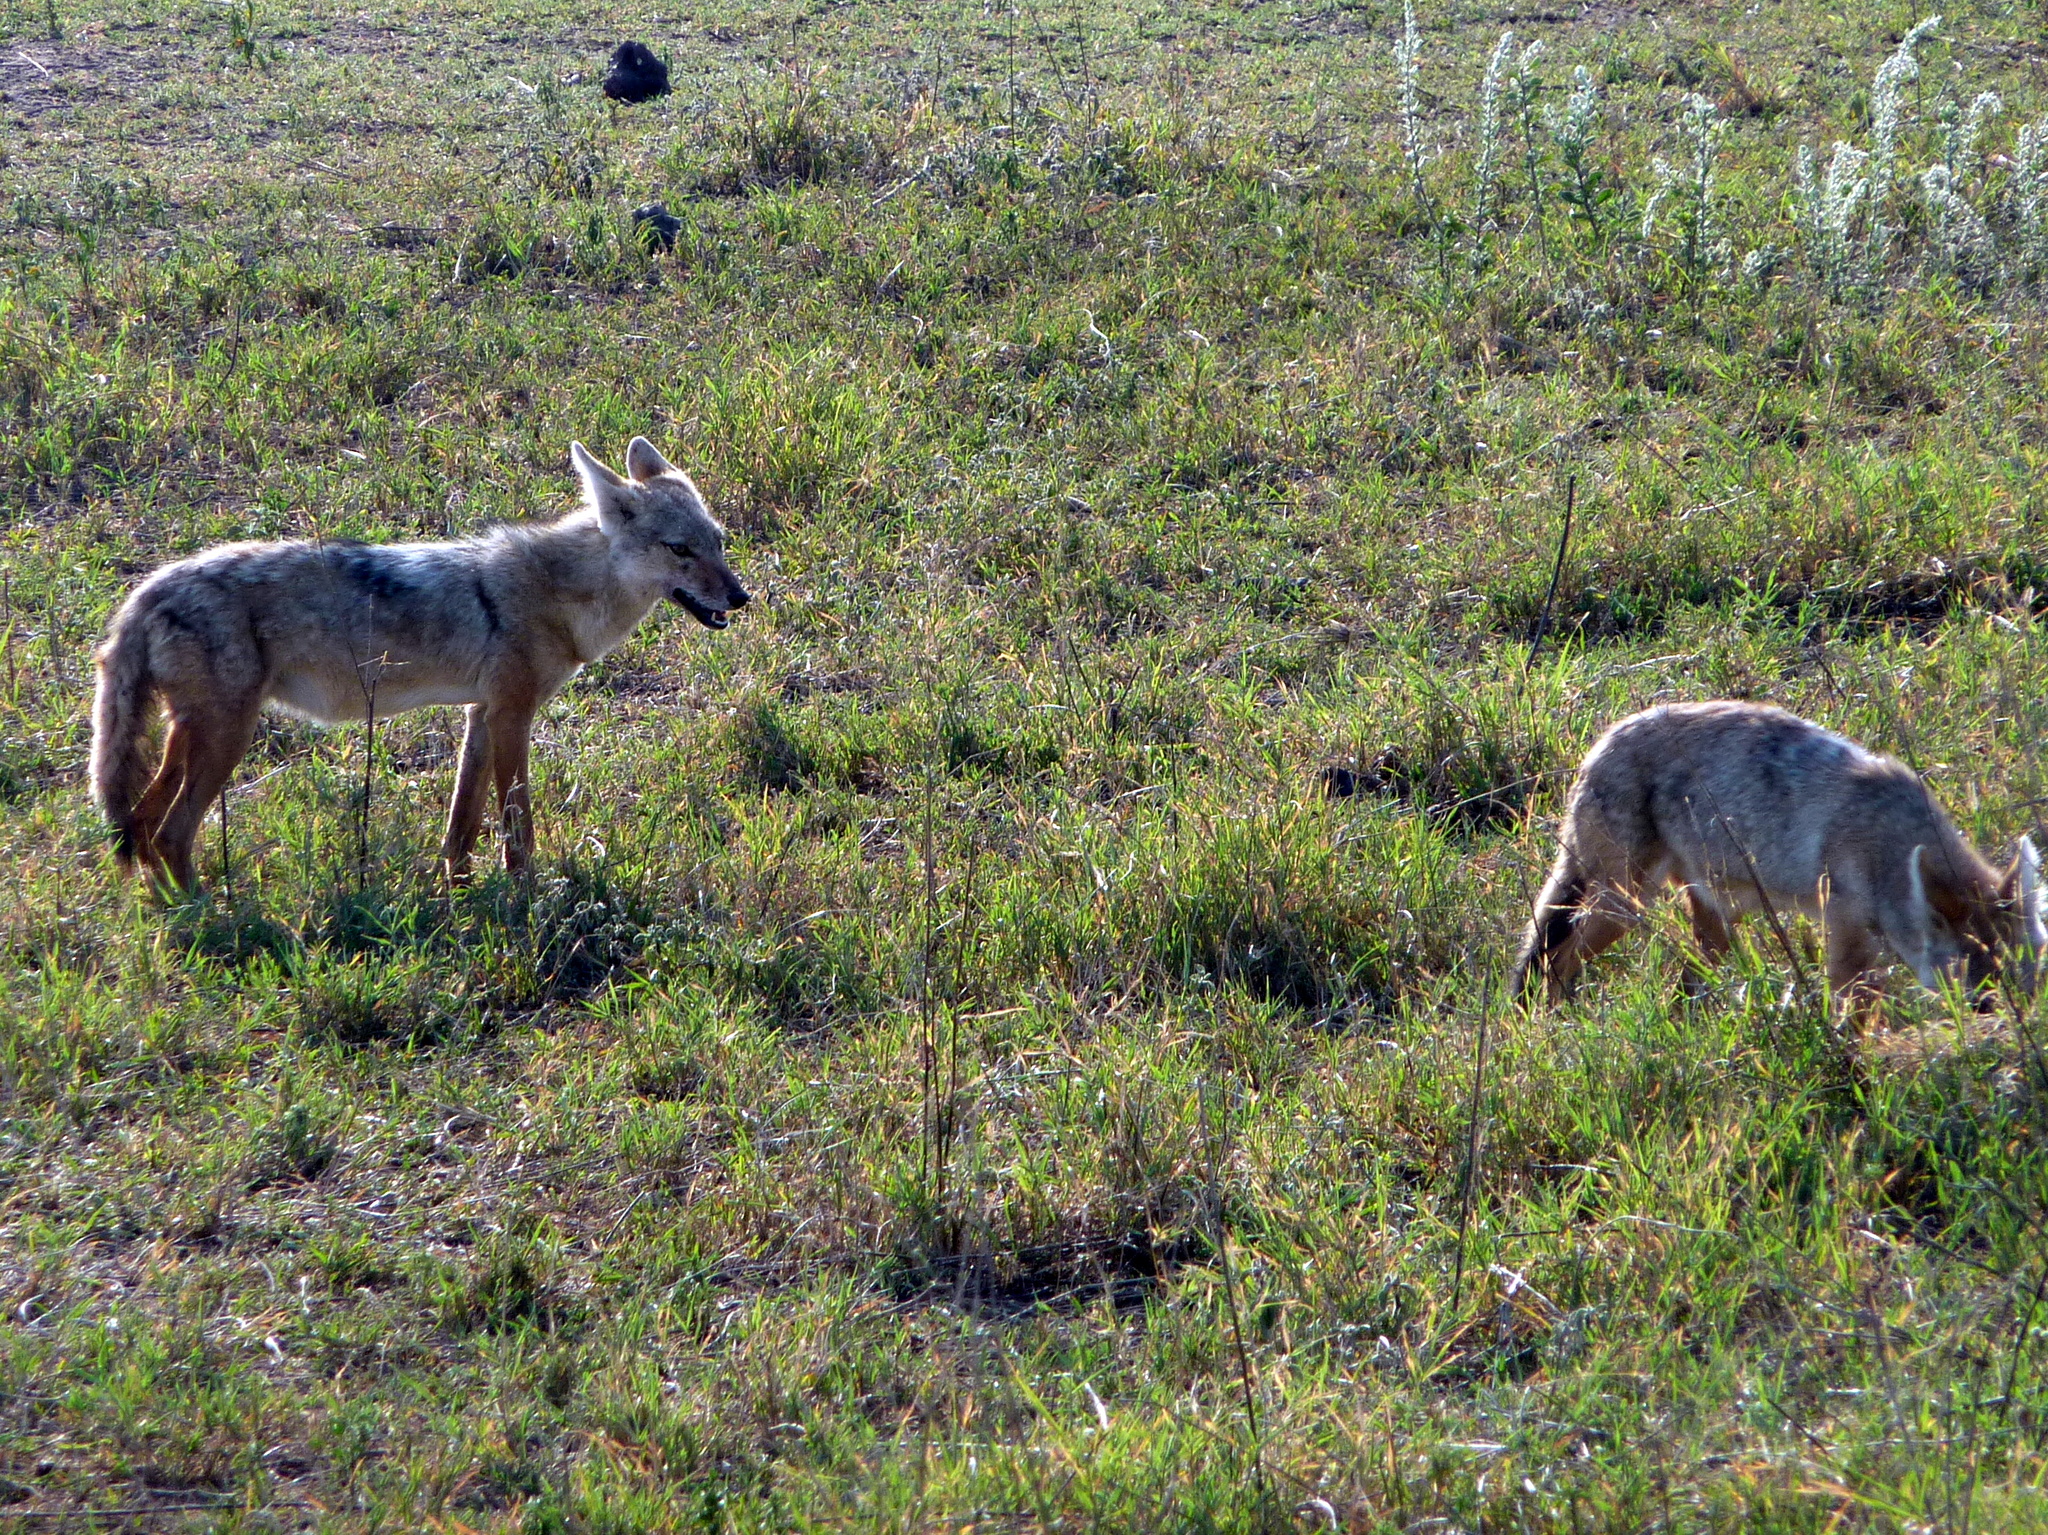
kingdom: Animalia
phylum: Chordata
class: Mammalia
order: Carnivora
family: Canidae
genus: Canis
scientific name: Canis lupaster
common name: African golden wolf
